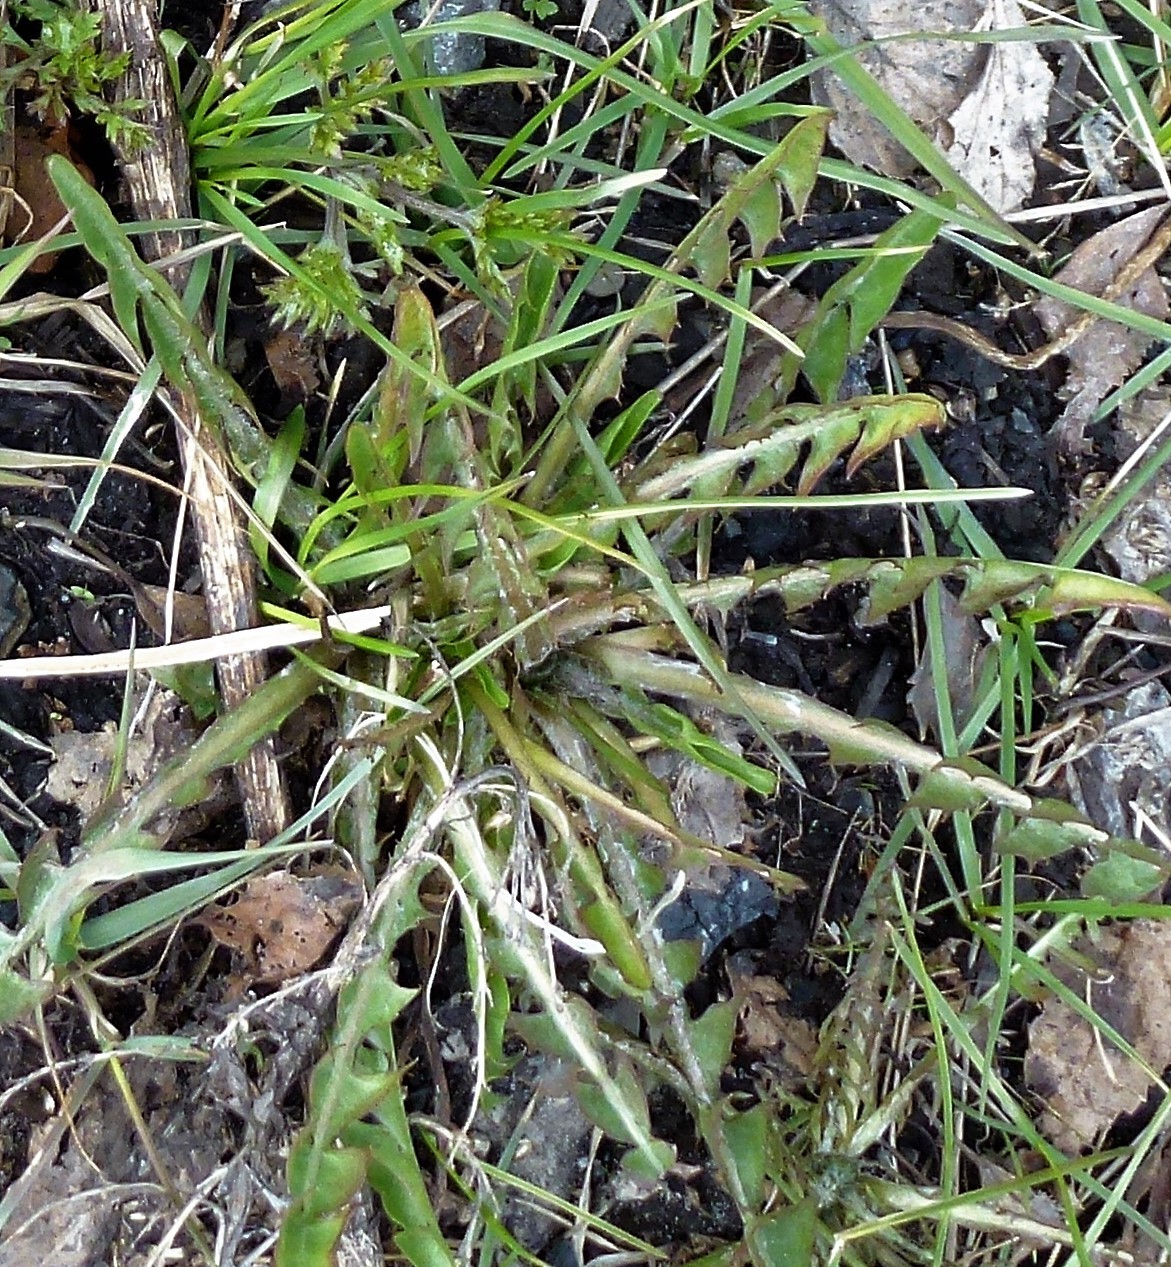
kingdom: Plantae
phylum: Tracheophyta
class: Magnoliopsida
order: Asterales
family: Asteraceae
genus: Taraxacum
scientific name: Taraxacum officinale
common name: Common dandelion
